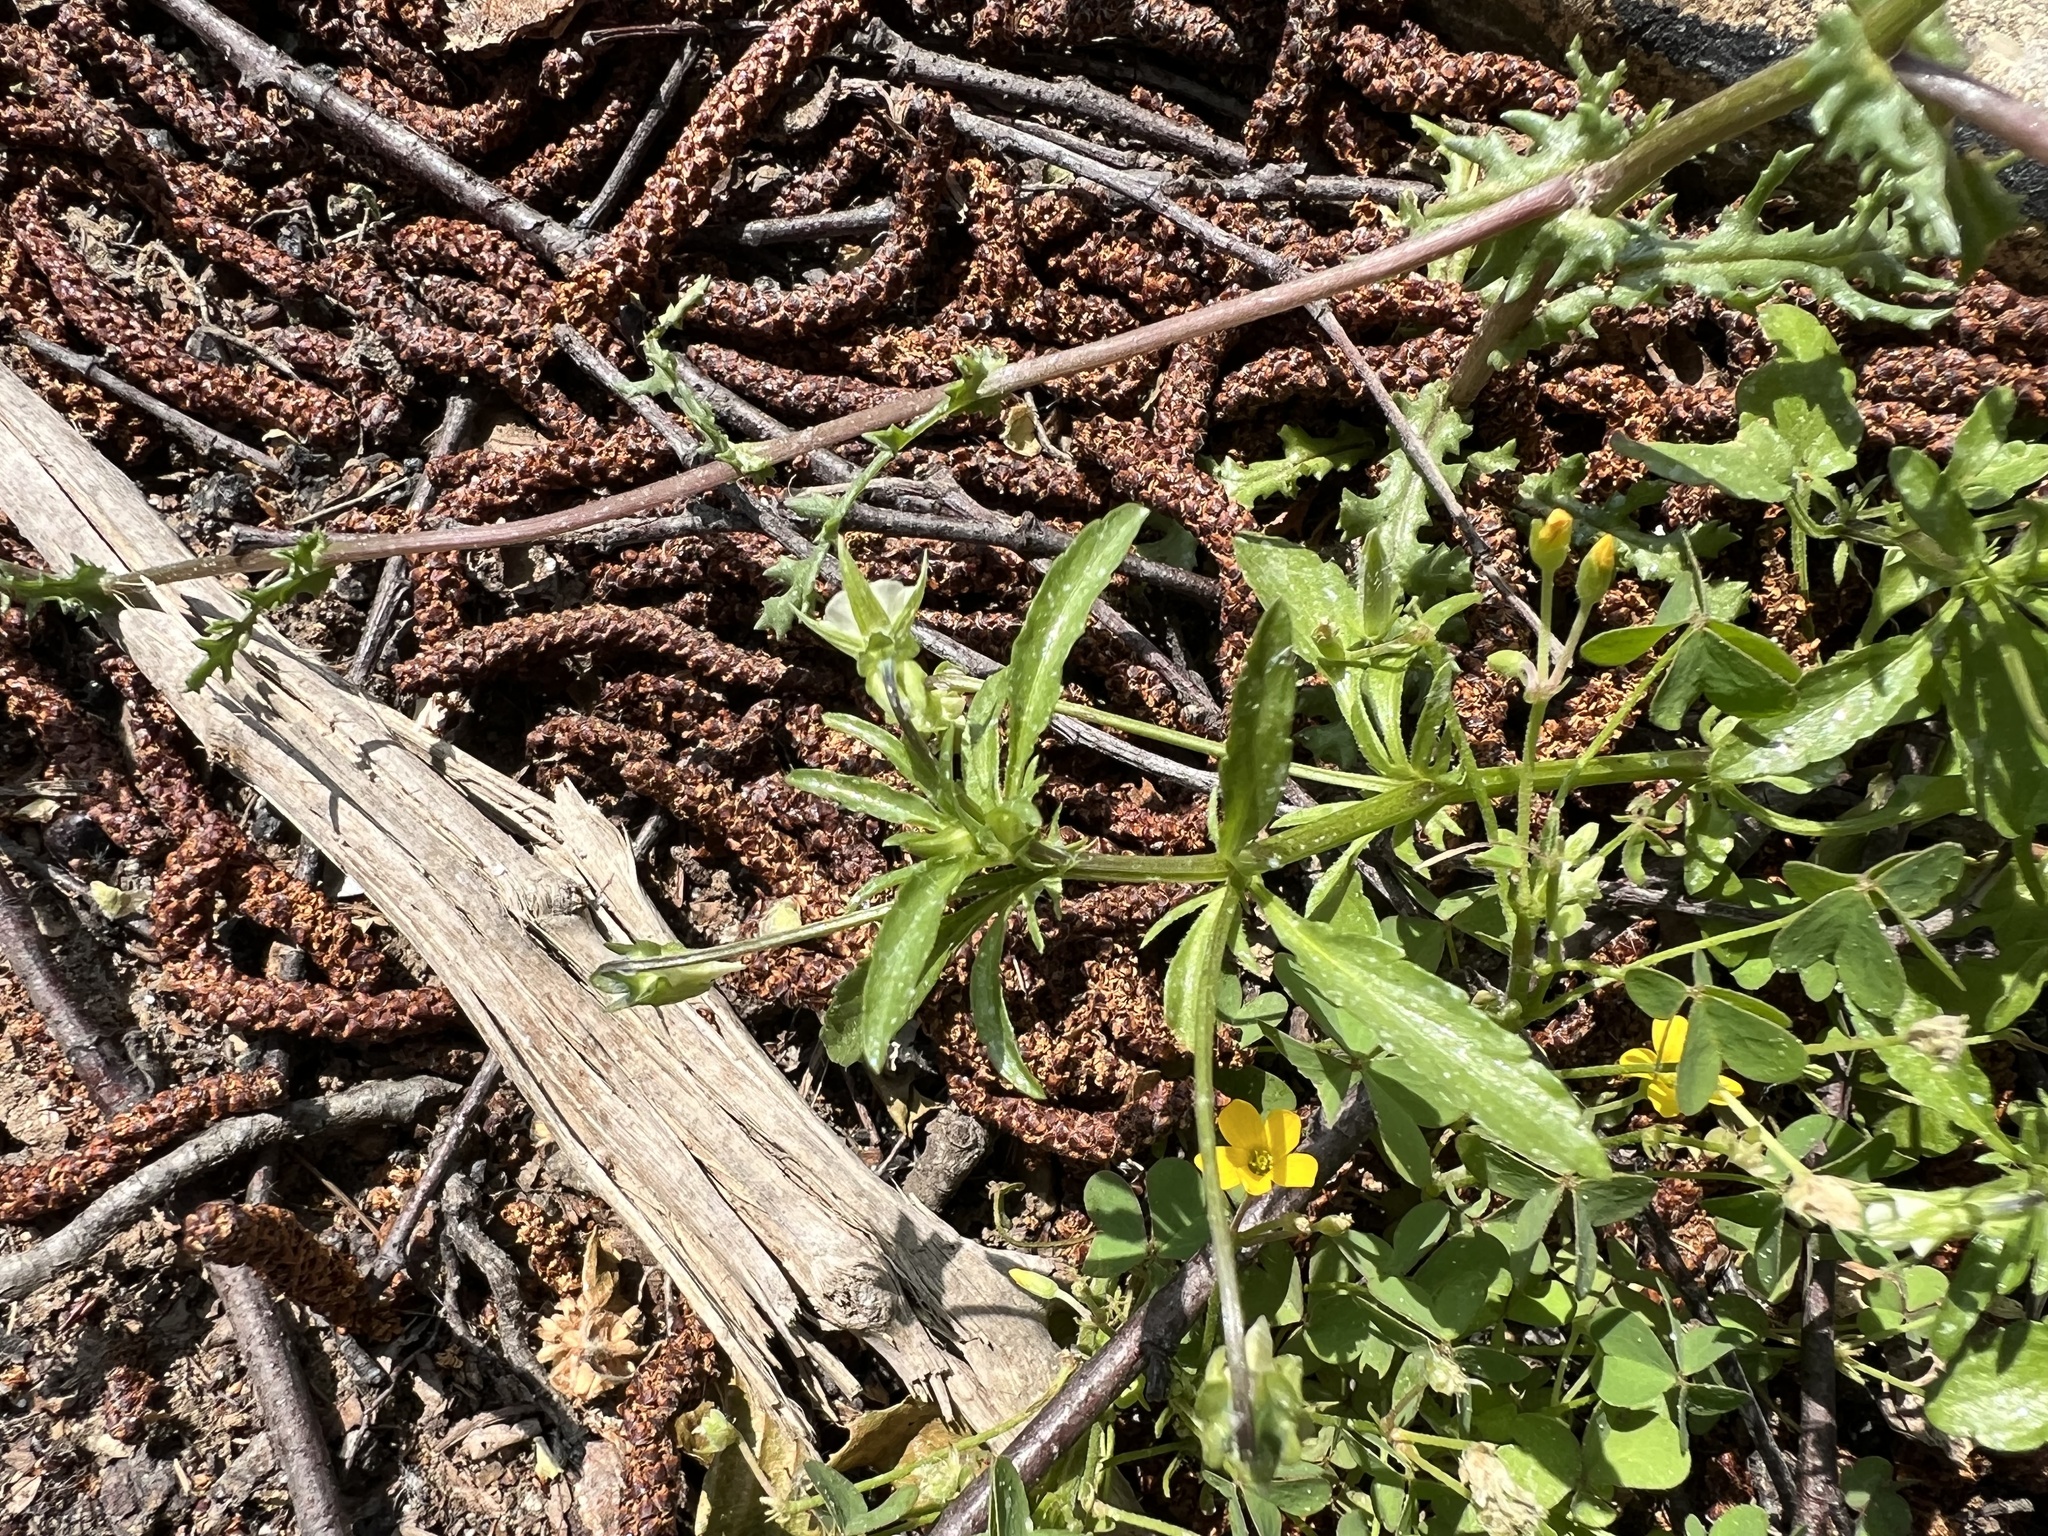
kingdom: Plantae
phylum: Tracheophyta
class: Magnoliopsida
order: Malpighiales
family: Violaceae
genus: Viola
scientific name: Viola arvensis
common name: Field pansy
